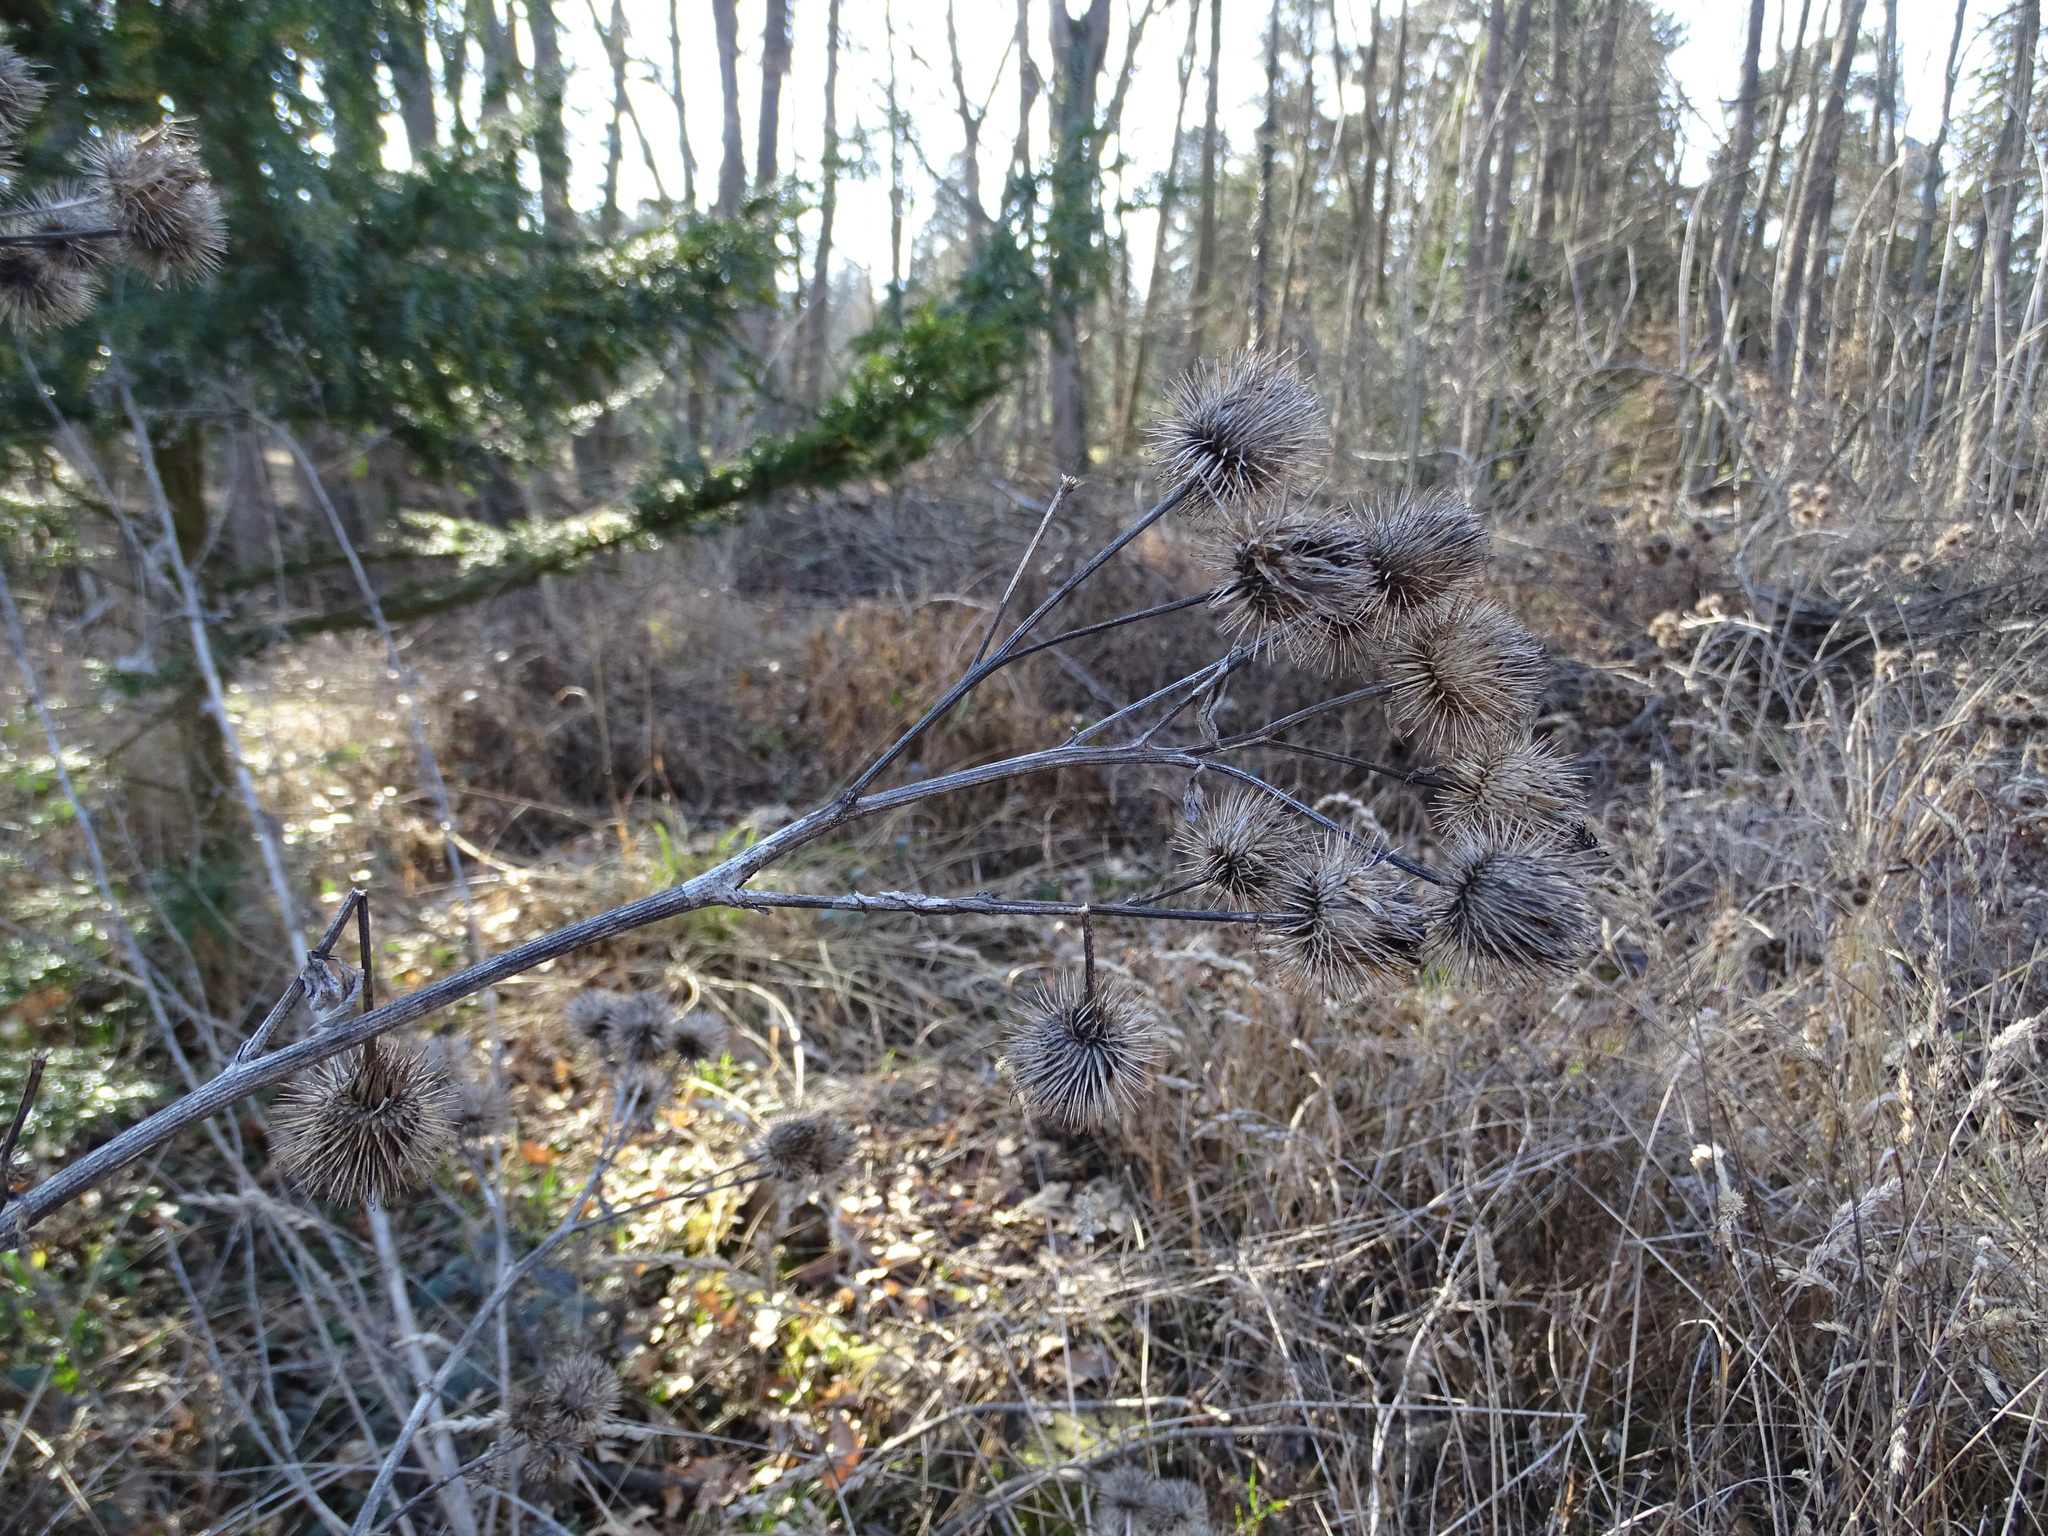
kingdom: Plantae
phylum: Tracheophyta
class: Magnoliopsida
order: Asterales
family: Asteraceae
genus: Arctium
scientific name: Arctium lappa
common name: Greater burdock
